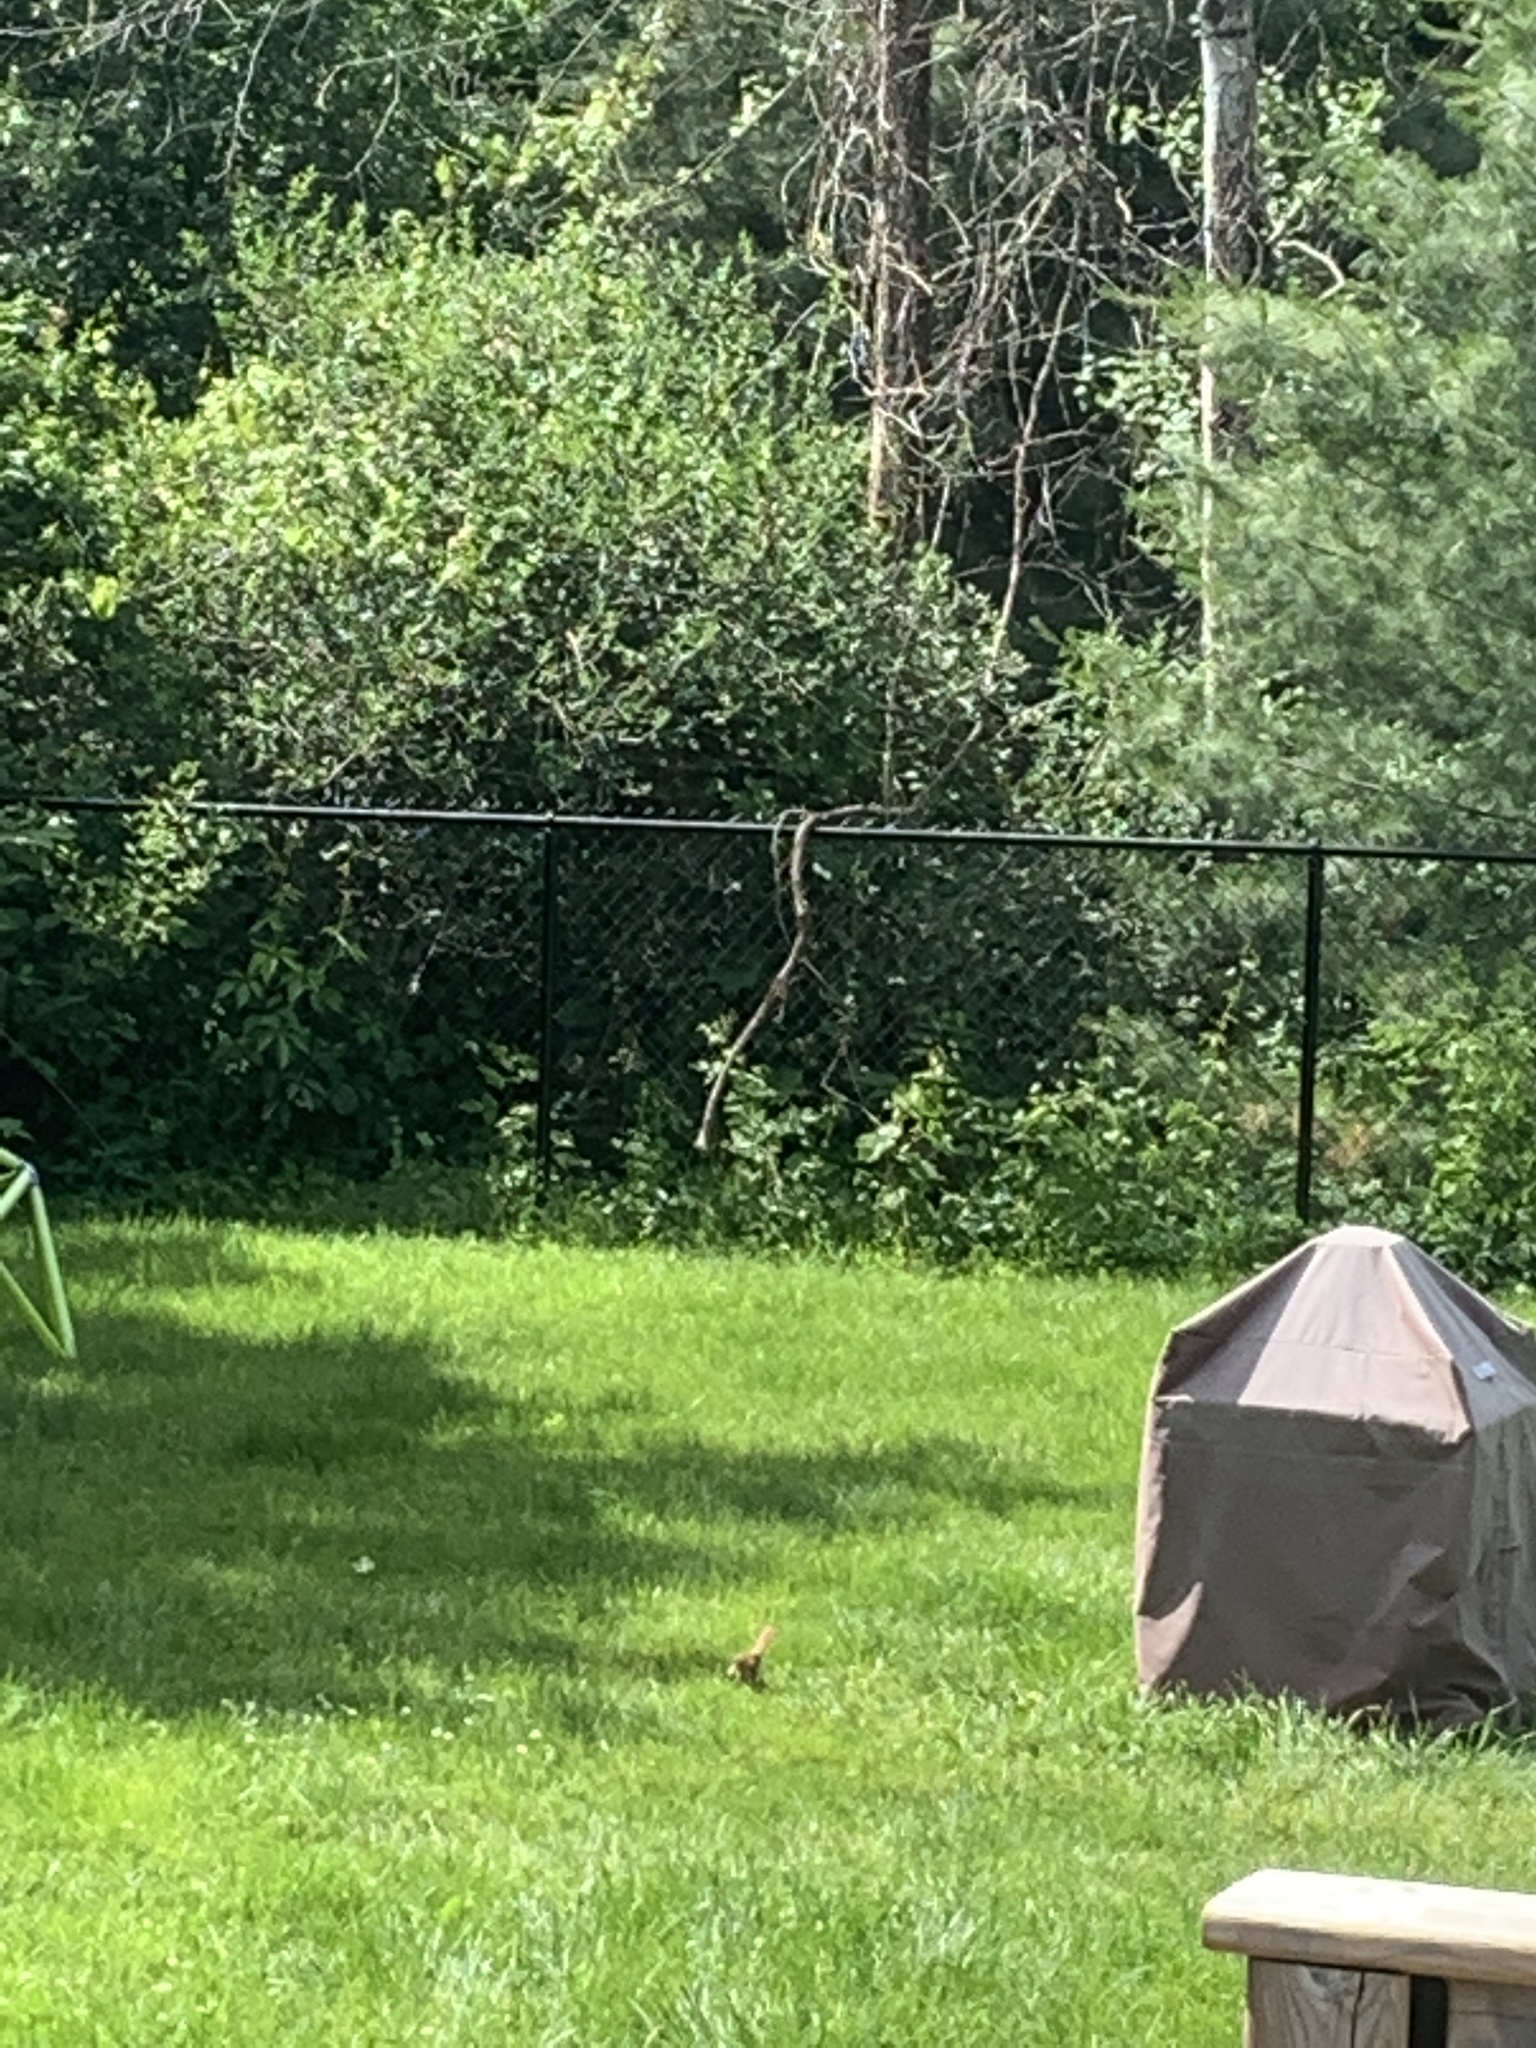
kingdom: Animalia
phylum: Chordata
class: Aves
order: Passeriformes
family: Mimidae
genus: Toxostoma
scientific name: Toxostoma rufum
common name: Brown thrasher
